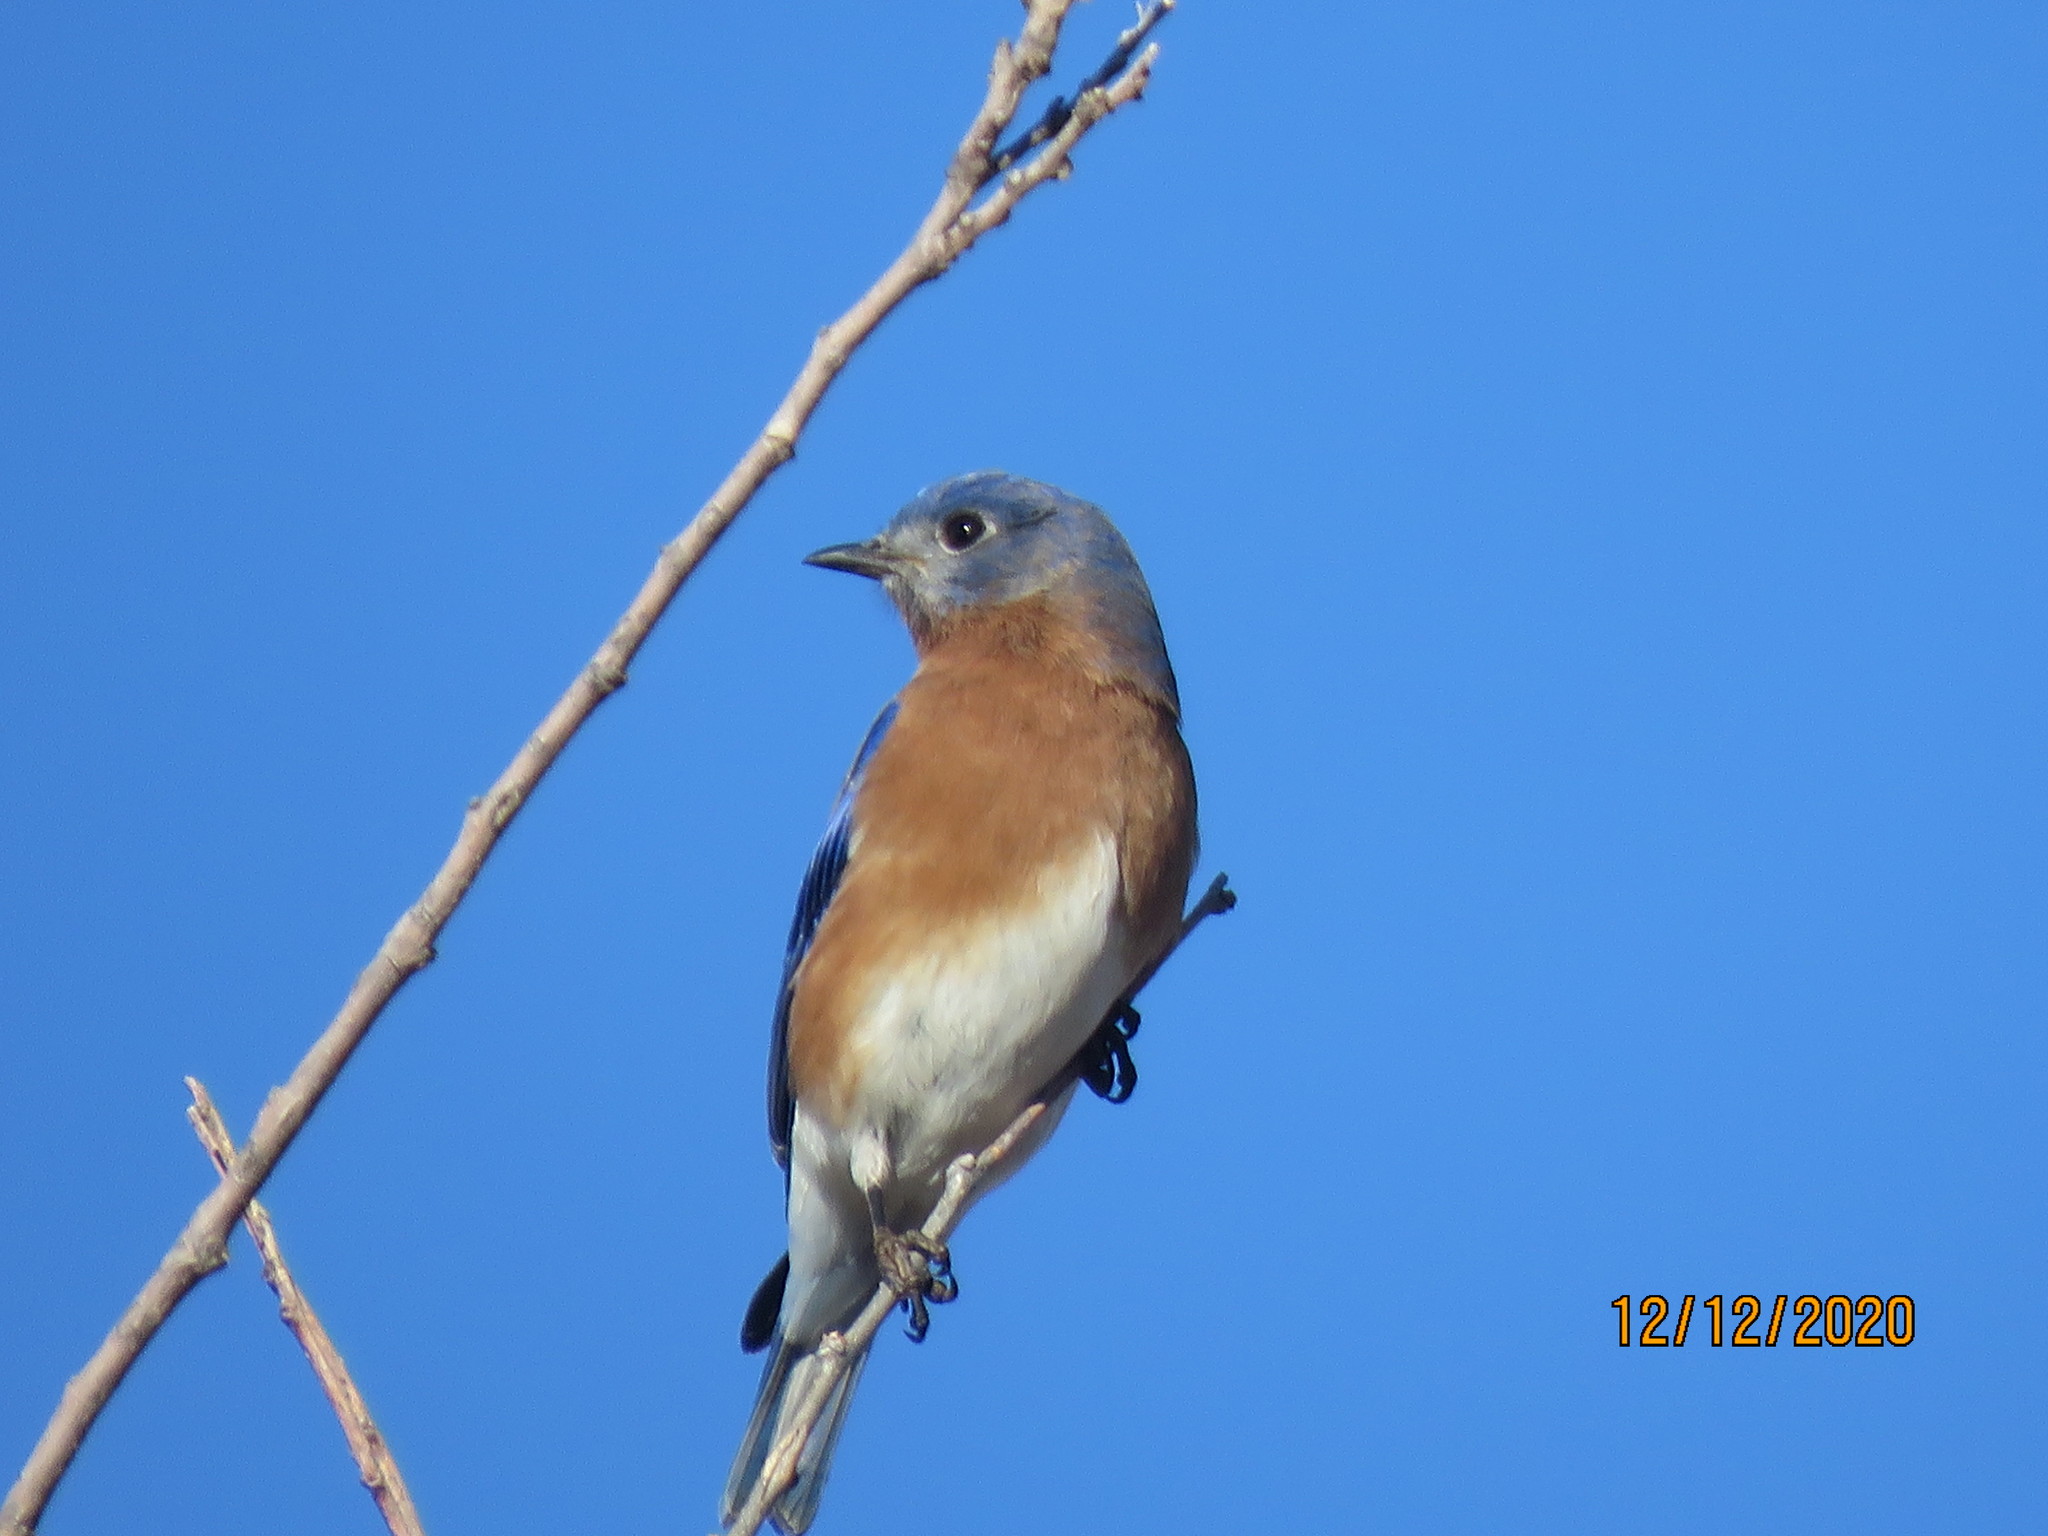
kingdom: Animalia
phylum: Chordata
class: Aves
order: Passeriformes
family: Turdidae
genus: Sialia
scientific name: Sialia sialis
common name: Eastern bluebird
